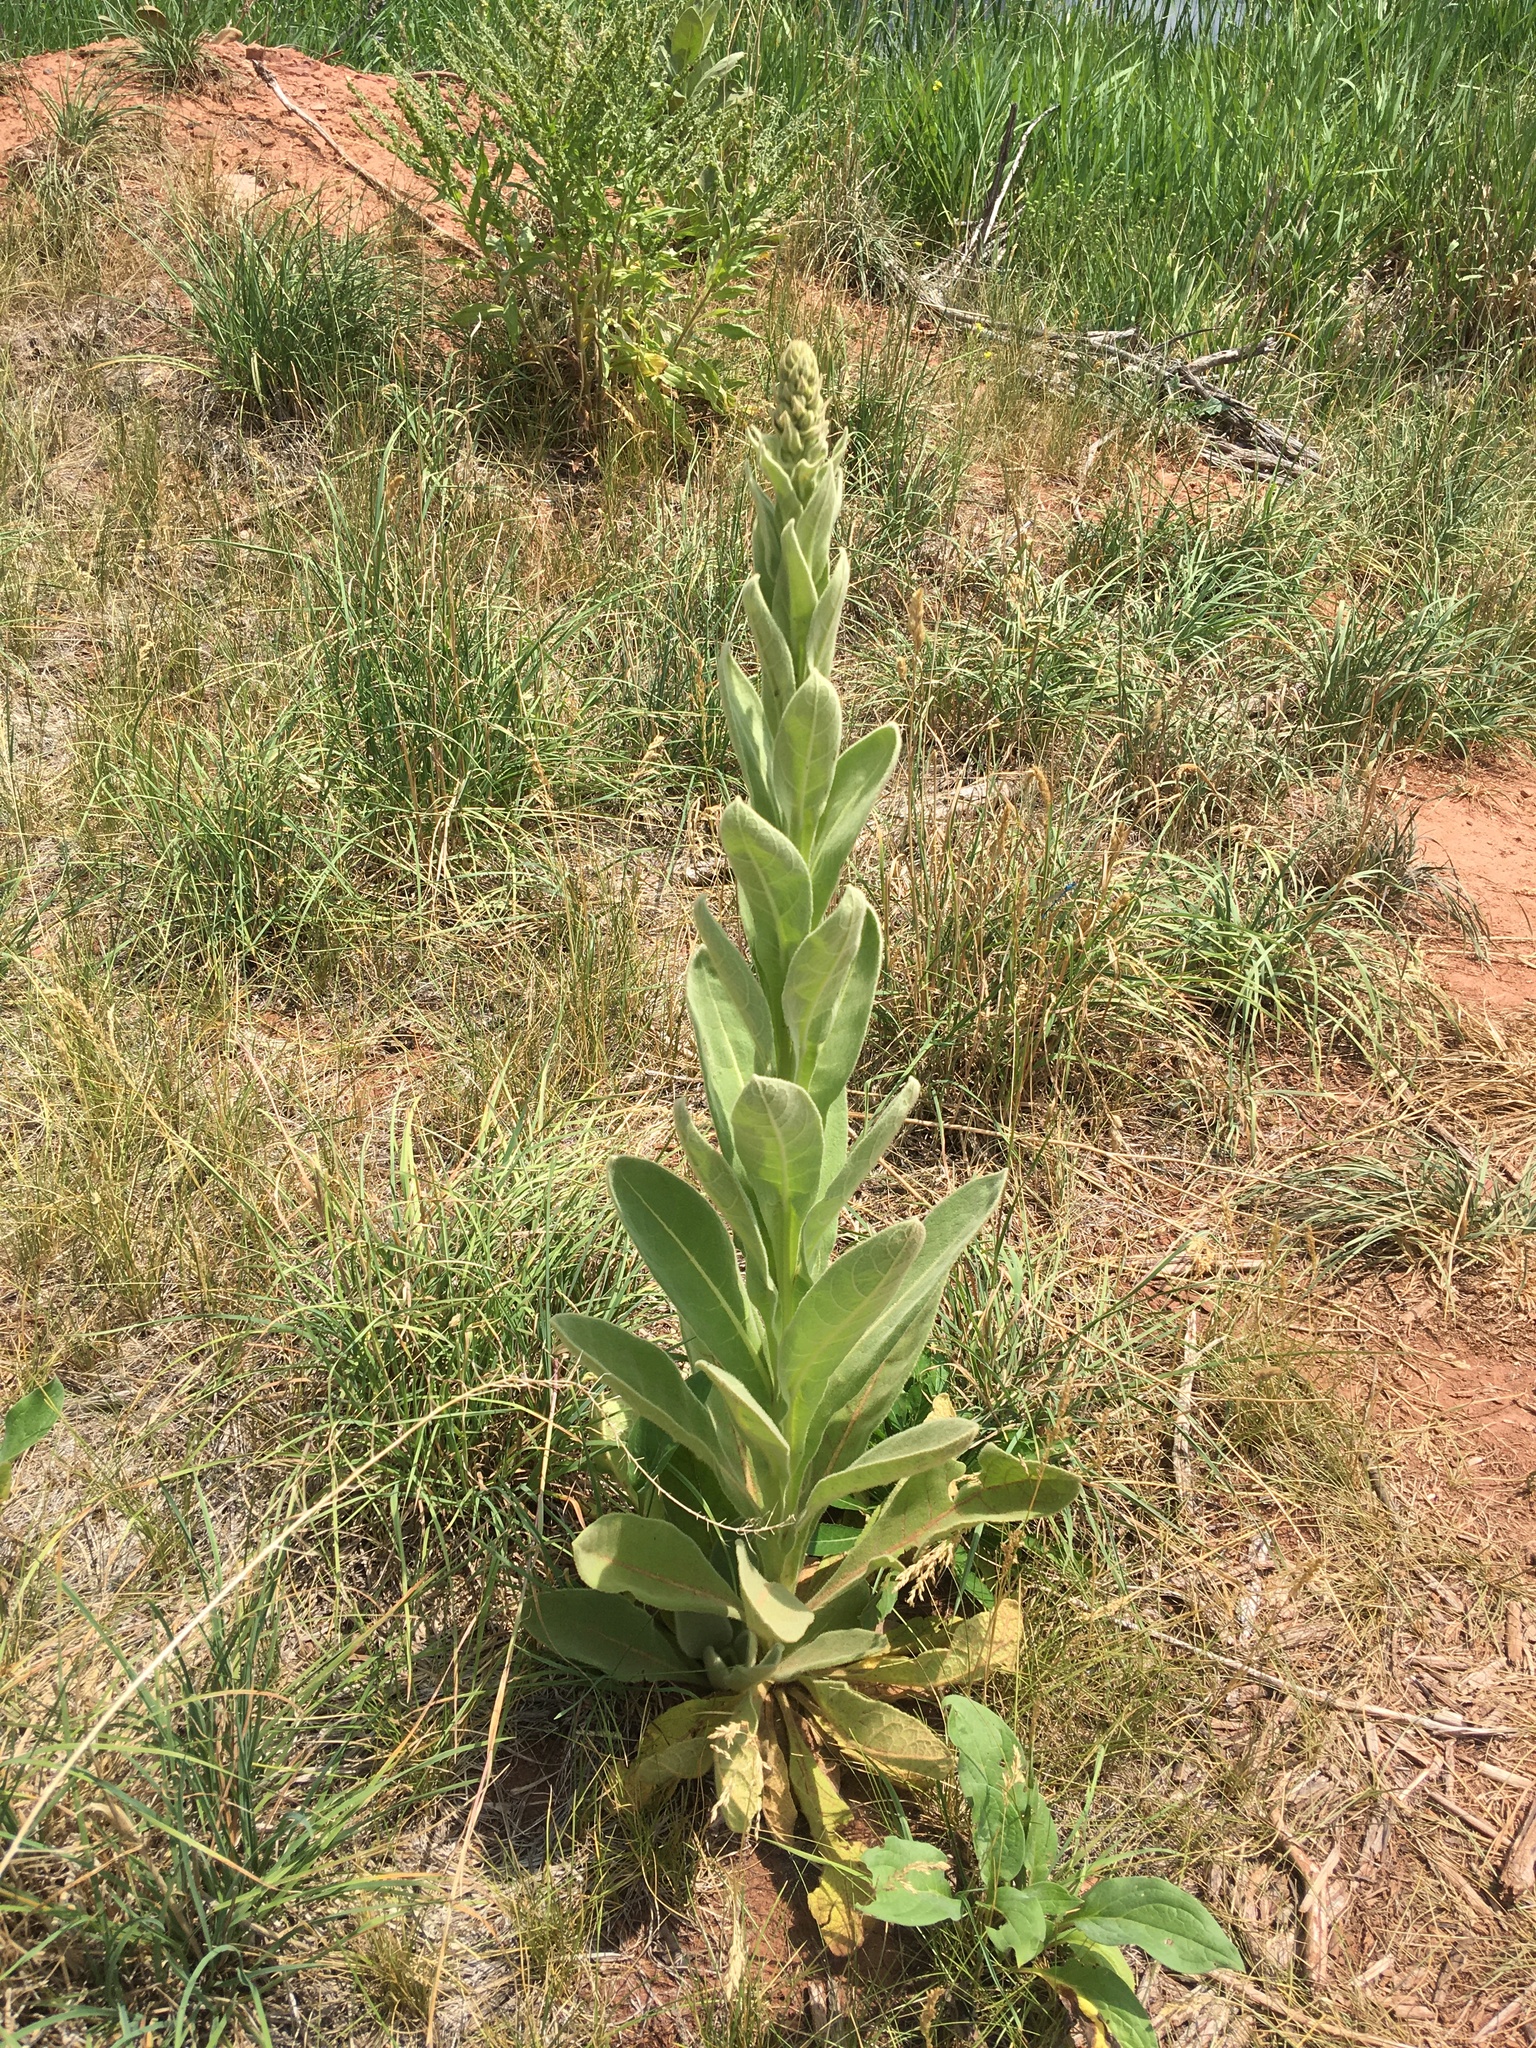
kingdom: Plantae
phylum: Tracheophyta
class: Magnoliopsida
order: Lamiales
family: Scrophulariaceae
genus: Verbascum
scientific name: Verbascum thapsus
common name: Common mullein
